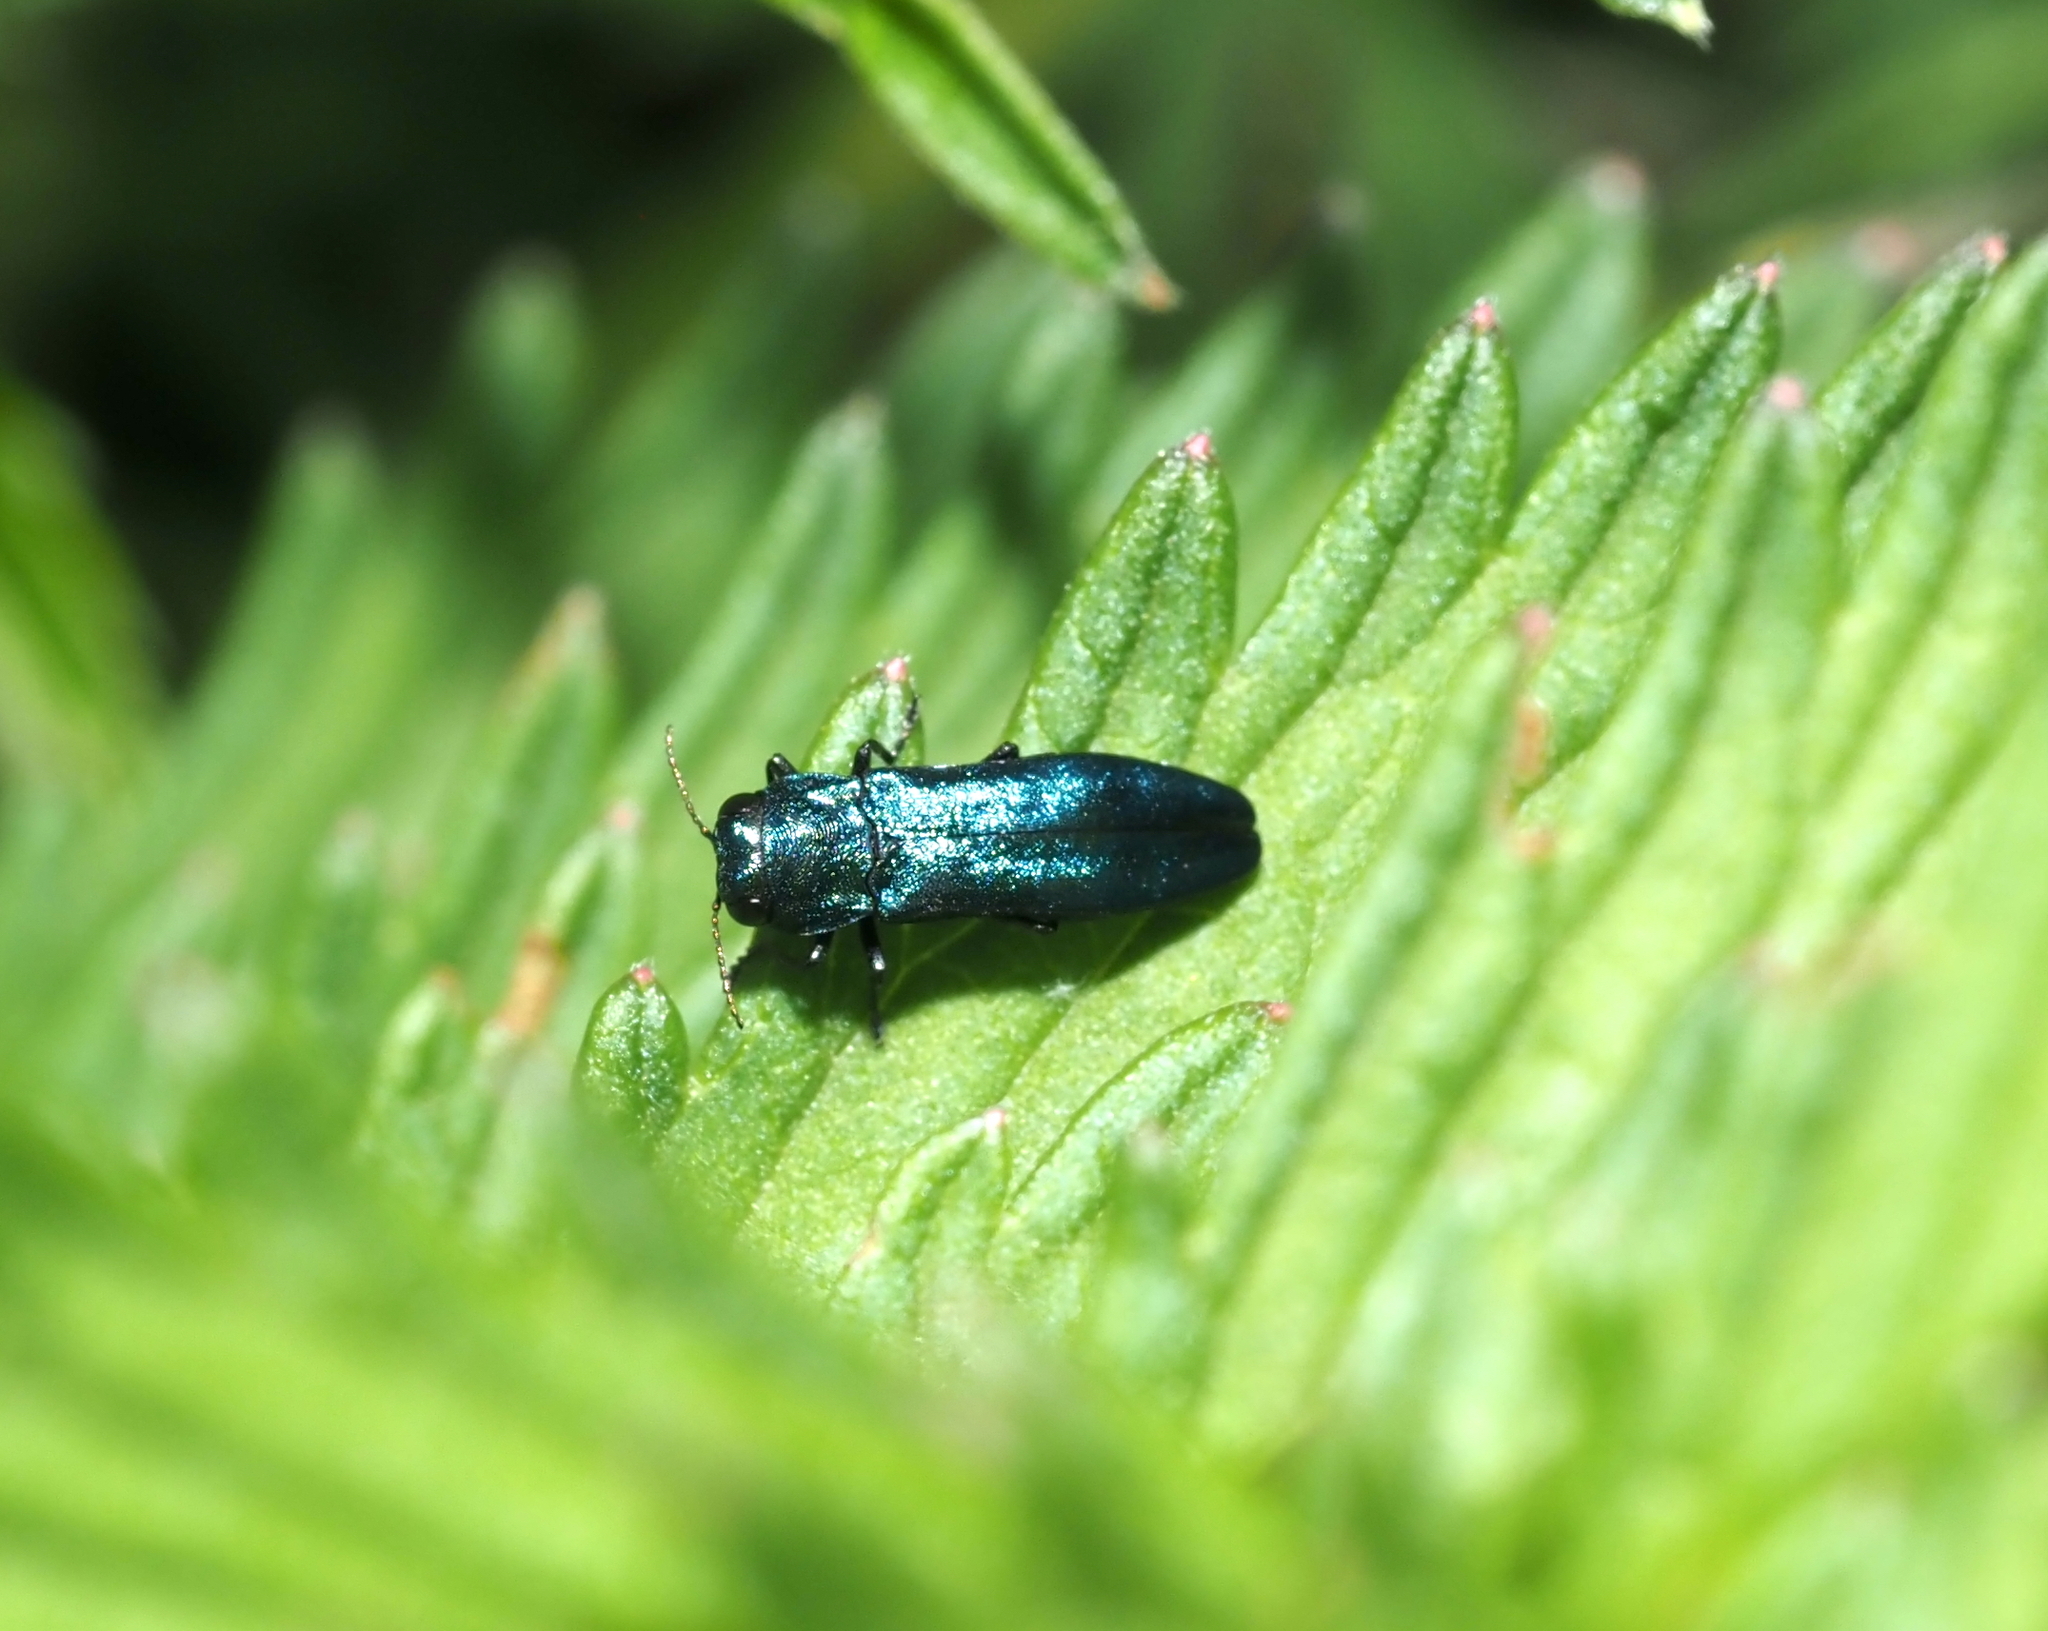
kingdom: Animalia
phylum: Arthropoda
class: Insecta
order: Coleoptera
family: Buprestidae
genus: Agrilus
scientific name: Agrilus cyanescens
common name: Bluish borer beetle
